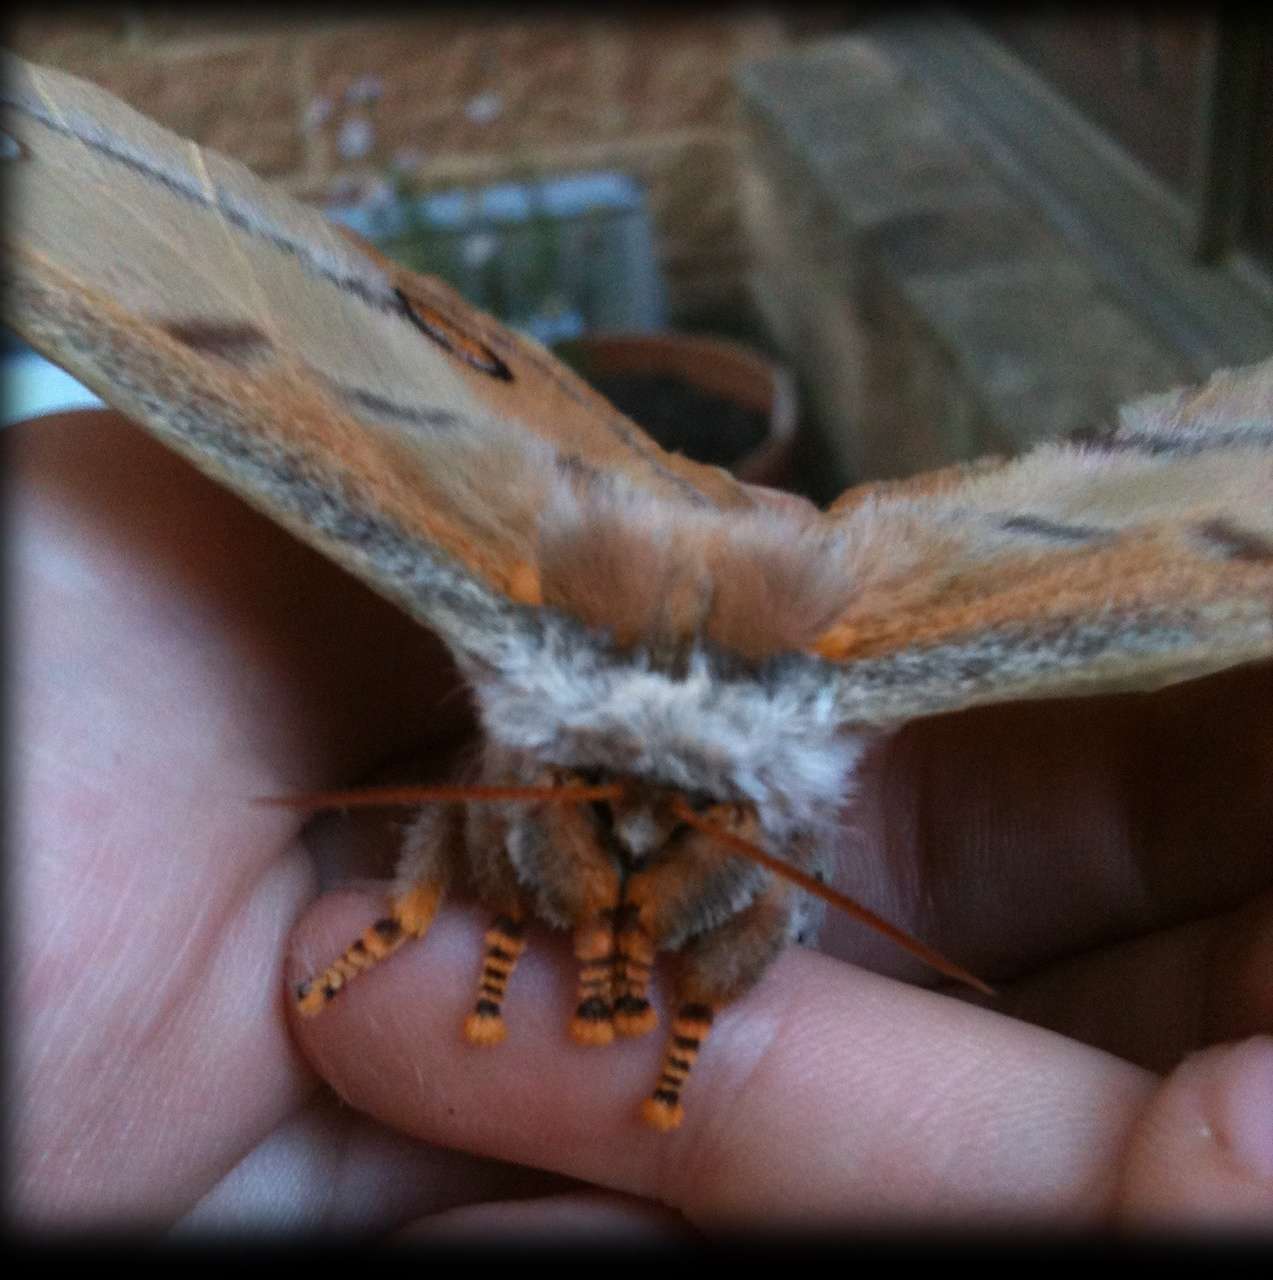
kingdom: Animalia
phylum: Arthropoda
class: Insecta
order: Lepidoptera
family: Saturniidae
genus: Opodiphthera
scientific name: Opodiphthera
